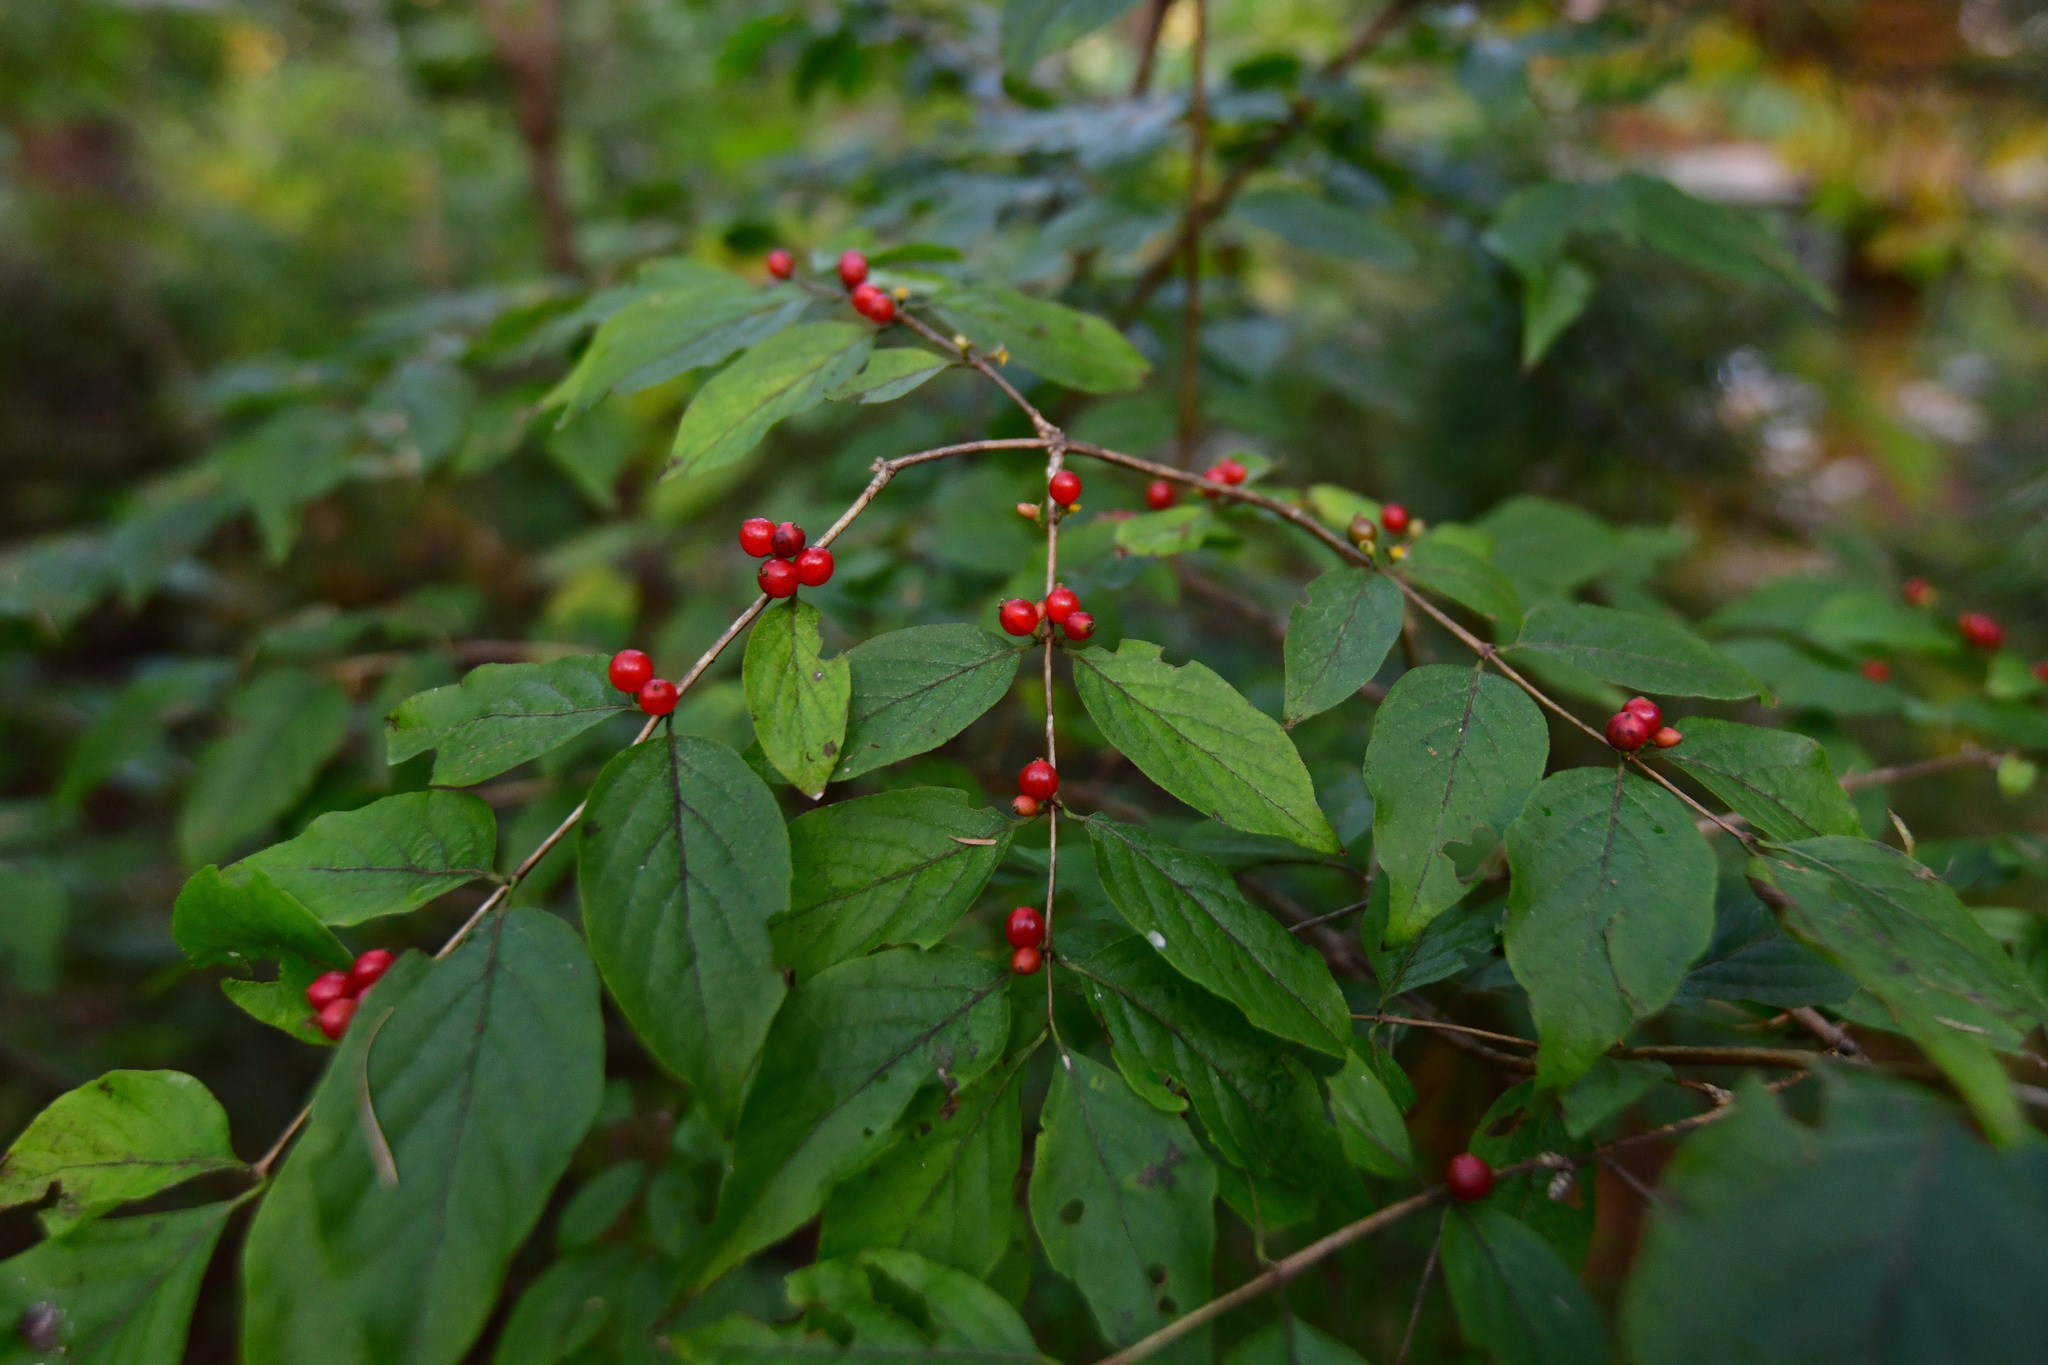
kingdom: Plantae
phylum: Tracheophyta
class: Magnoliopsida
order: Dipsacales
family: Caprifoliaceae
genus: Lonicera
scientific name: Lonicera maackii
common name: Amur honeysuckle
